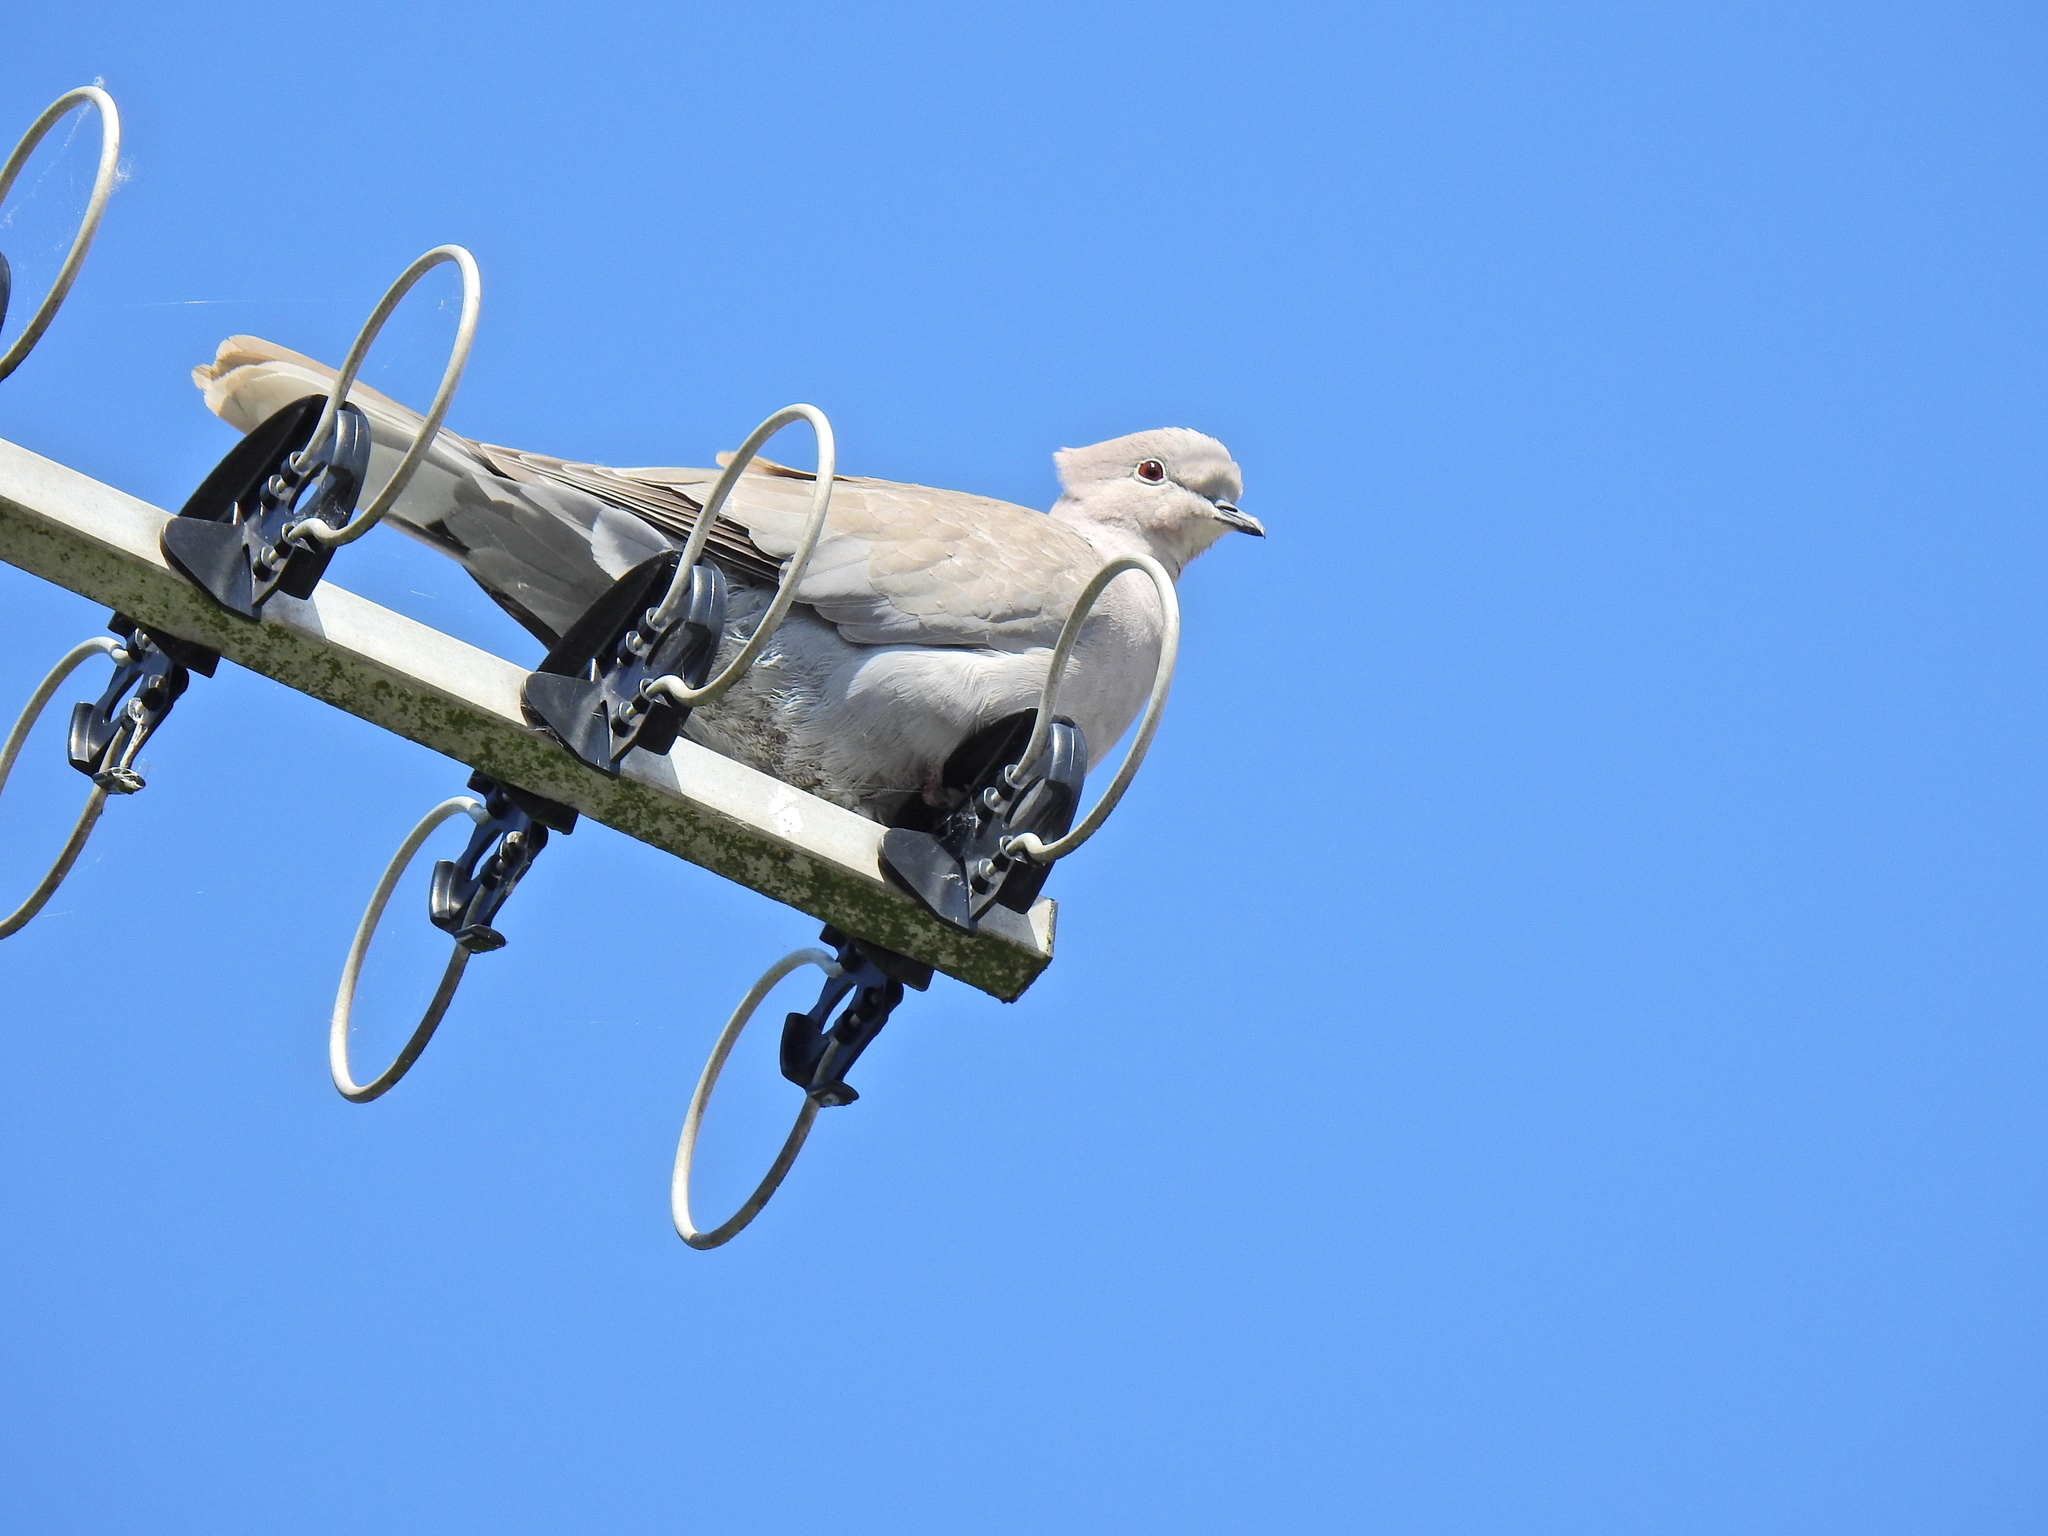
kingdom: Animalia
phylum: Chordata
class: Aves
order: Columbiformes
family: Columbidae
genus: Streptopelia
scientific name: Streptopelia decaocto
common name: Eurasian collared dove
